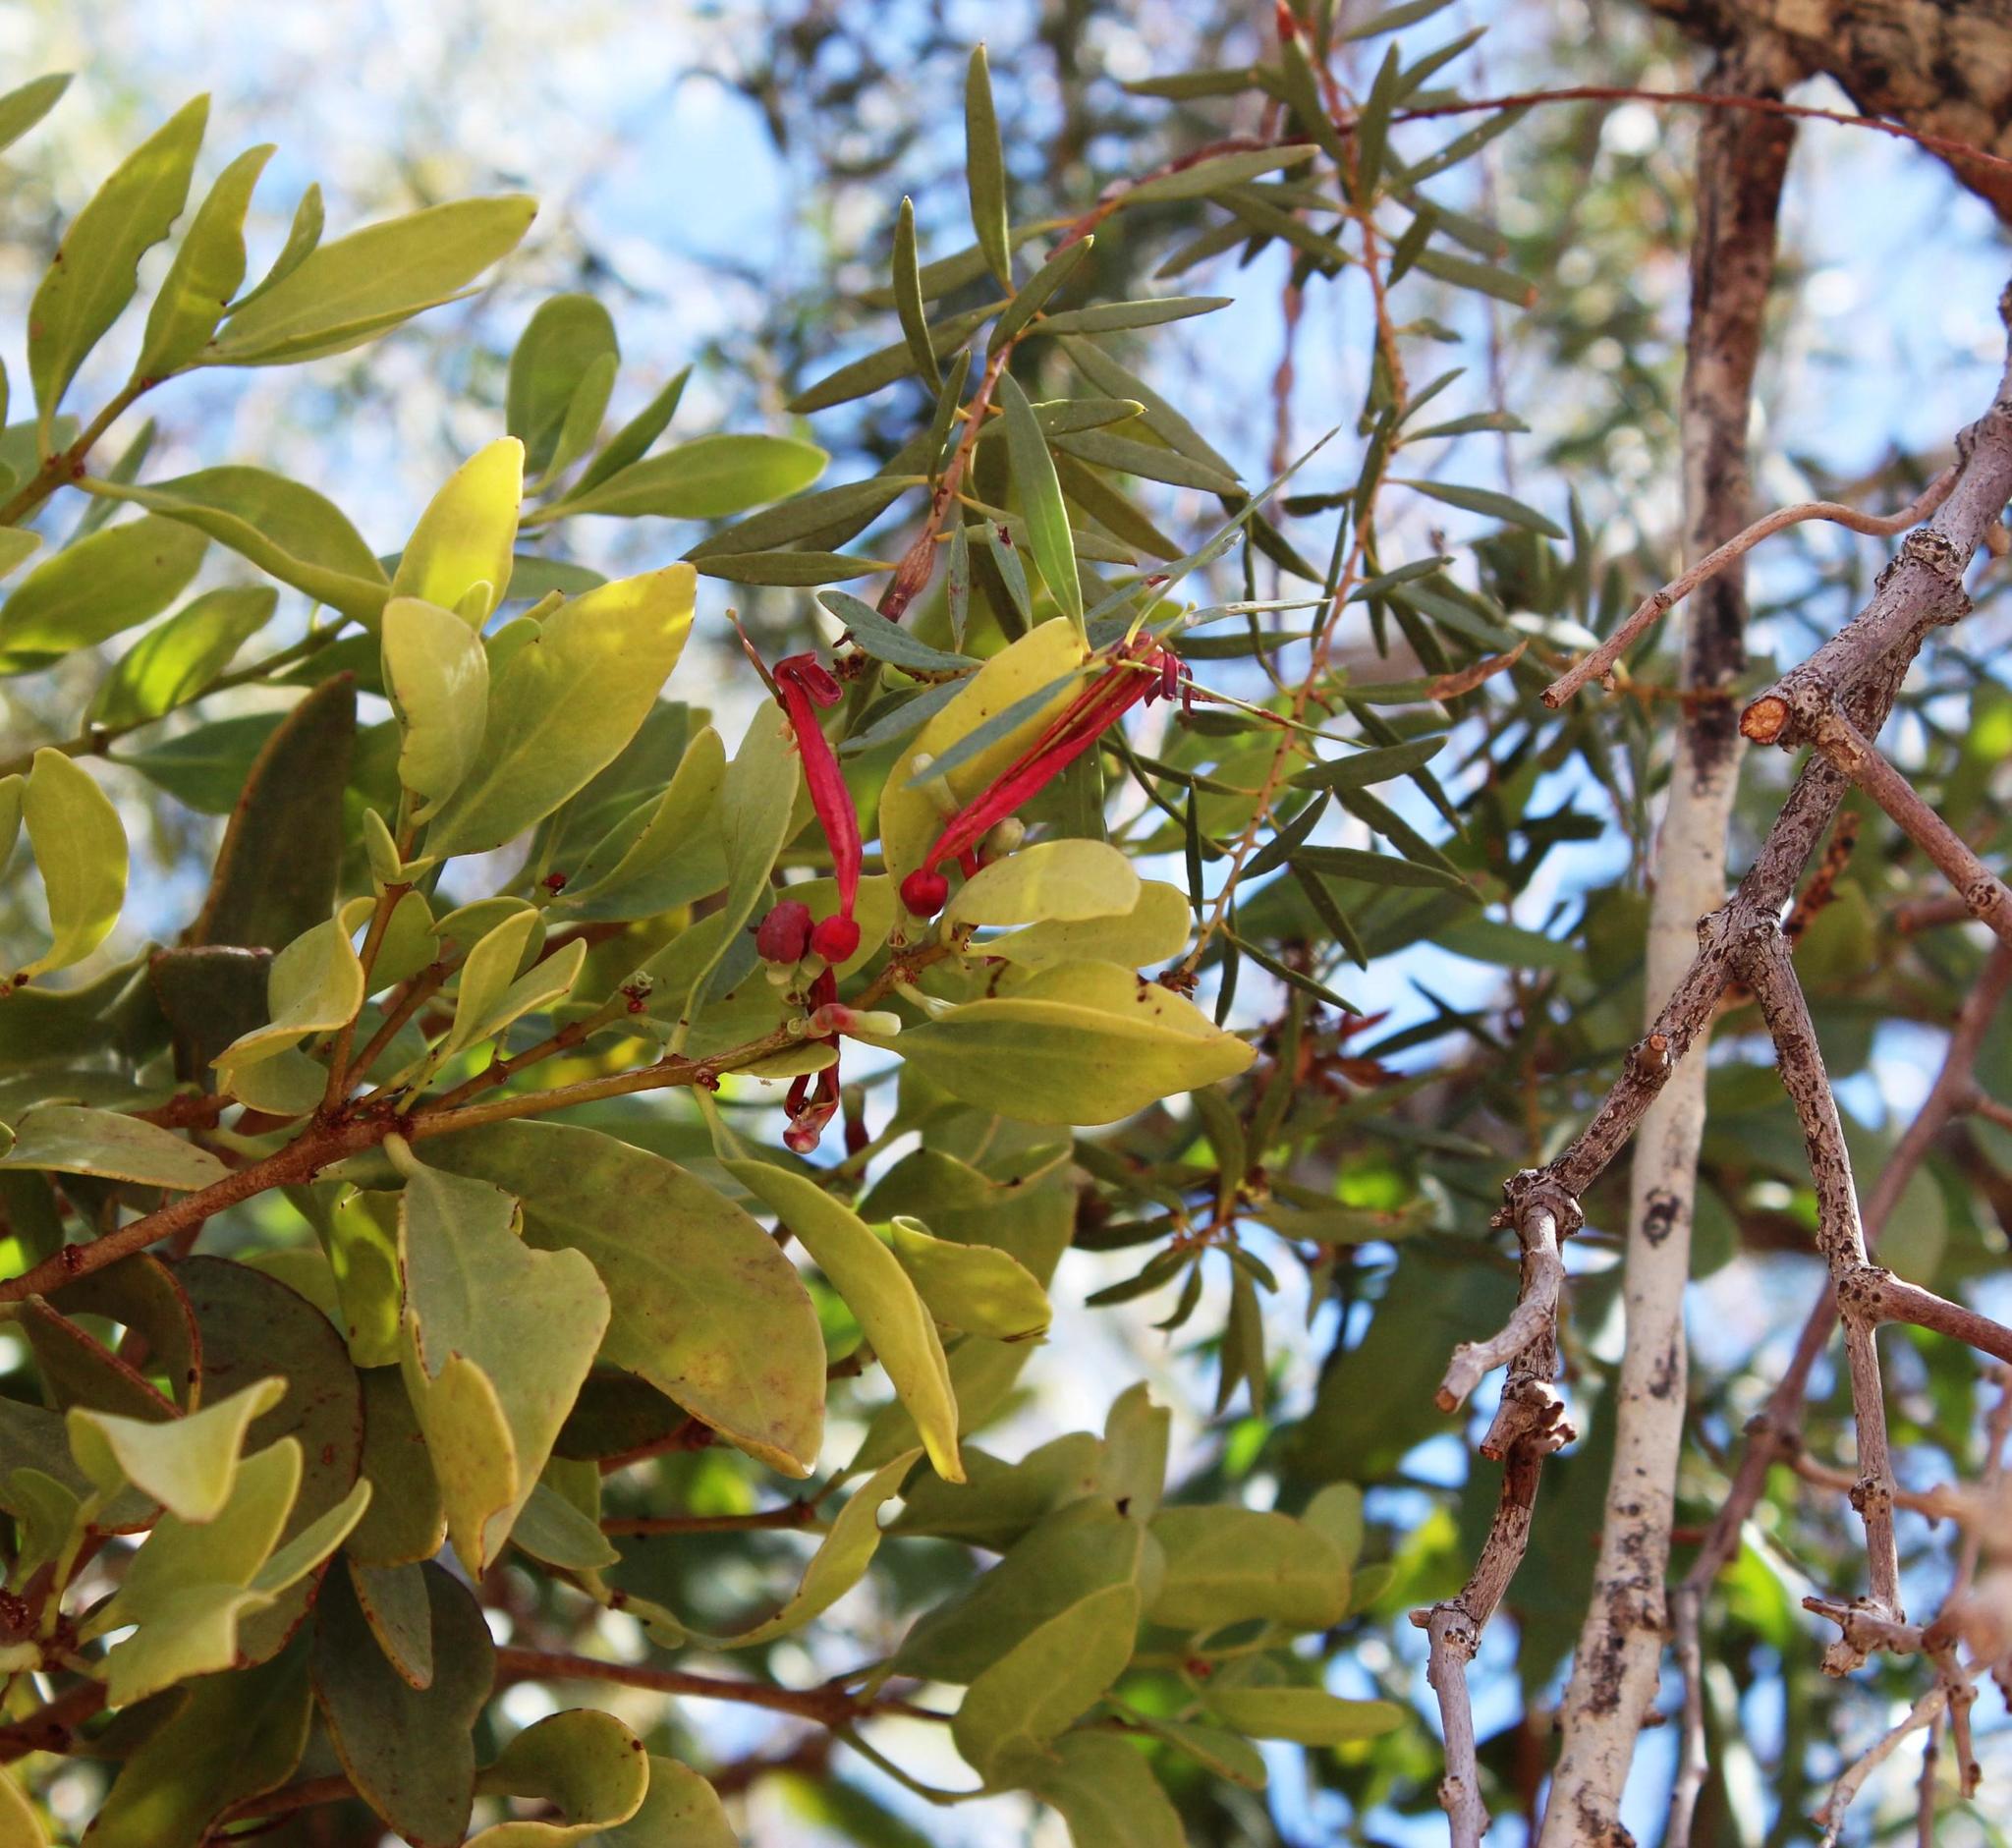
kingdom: Plantae
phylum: Tracheophyta
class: Magnoliopsida
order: Santalales
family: Loranthaceae
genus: Tapinanthus
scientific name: Tapinanthus oleifolius
